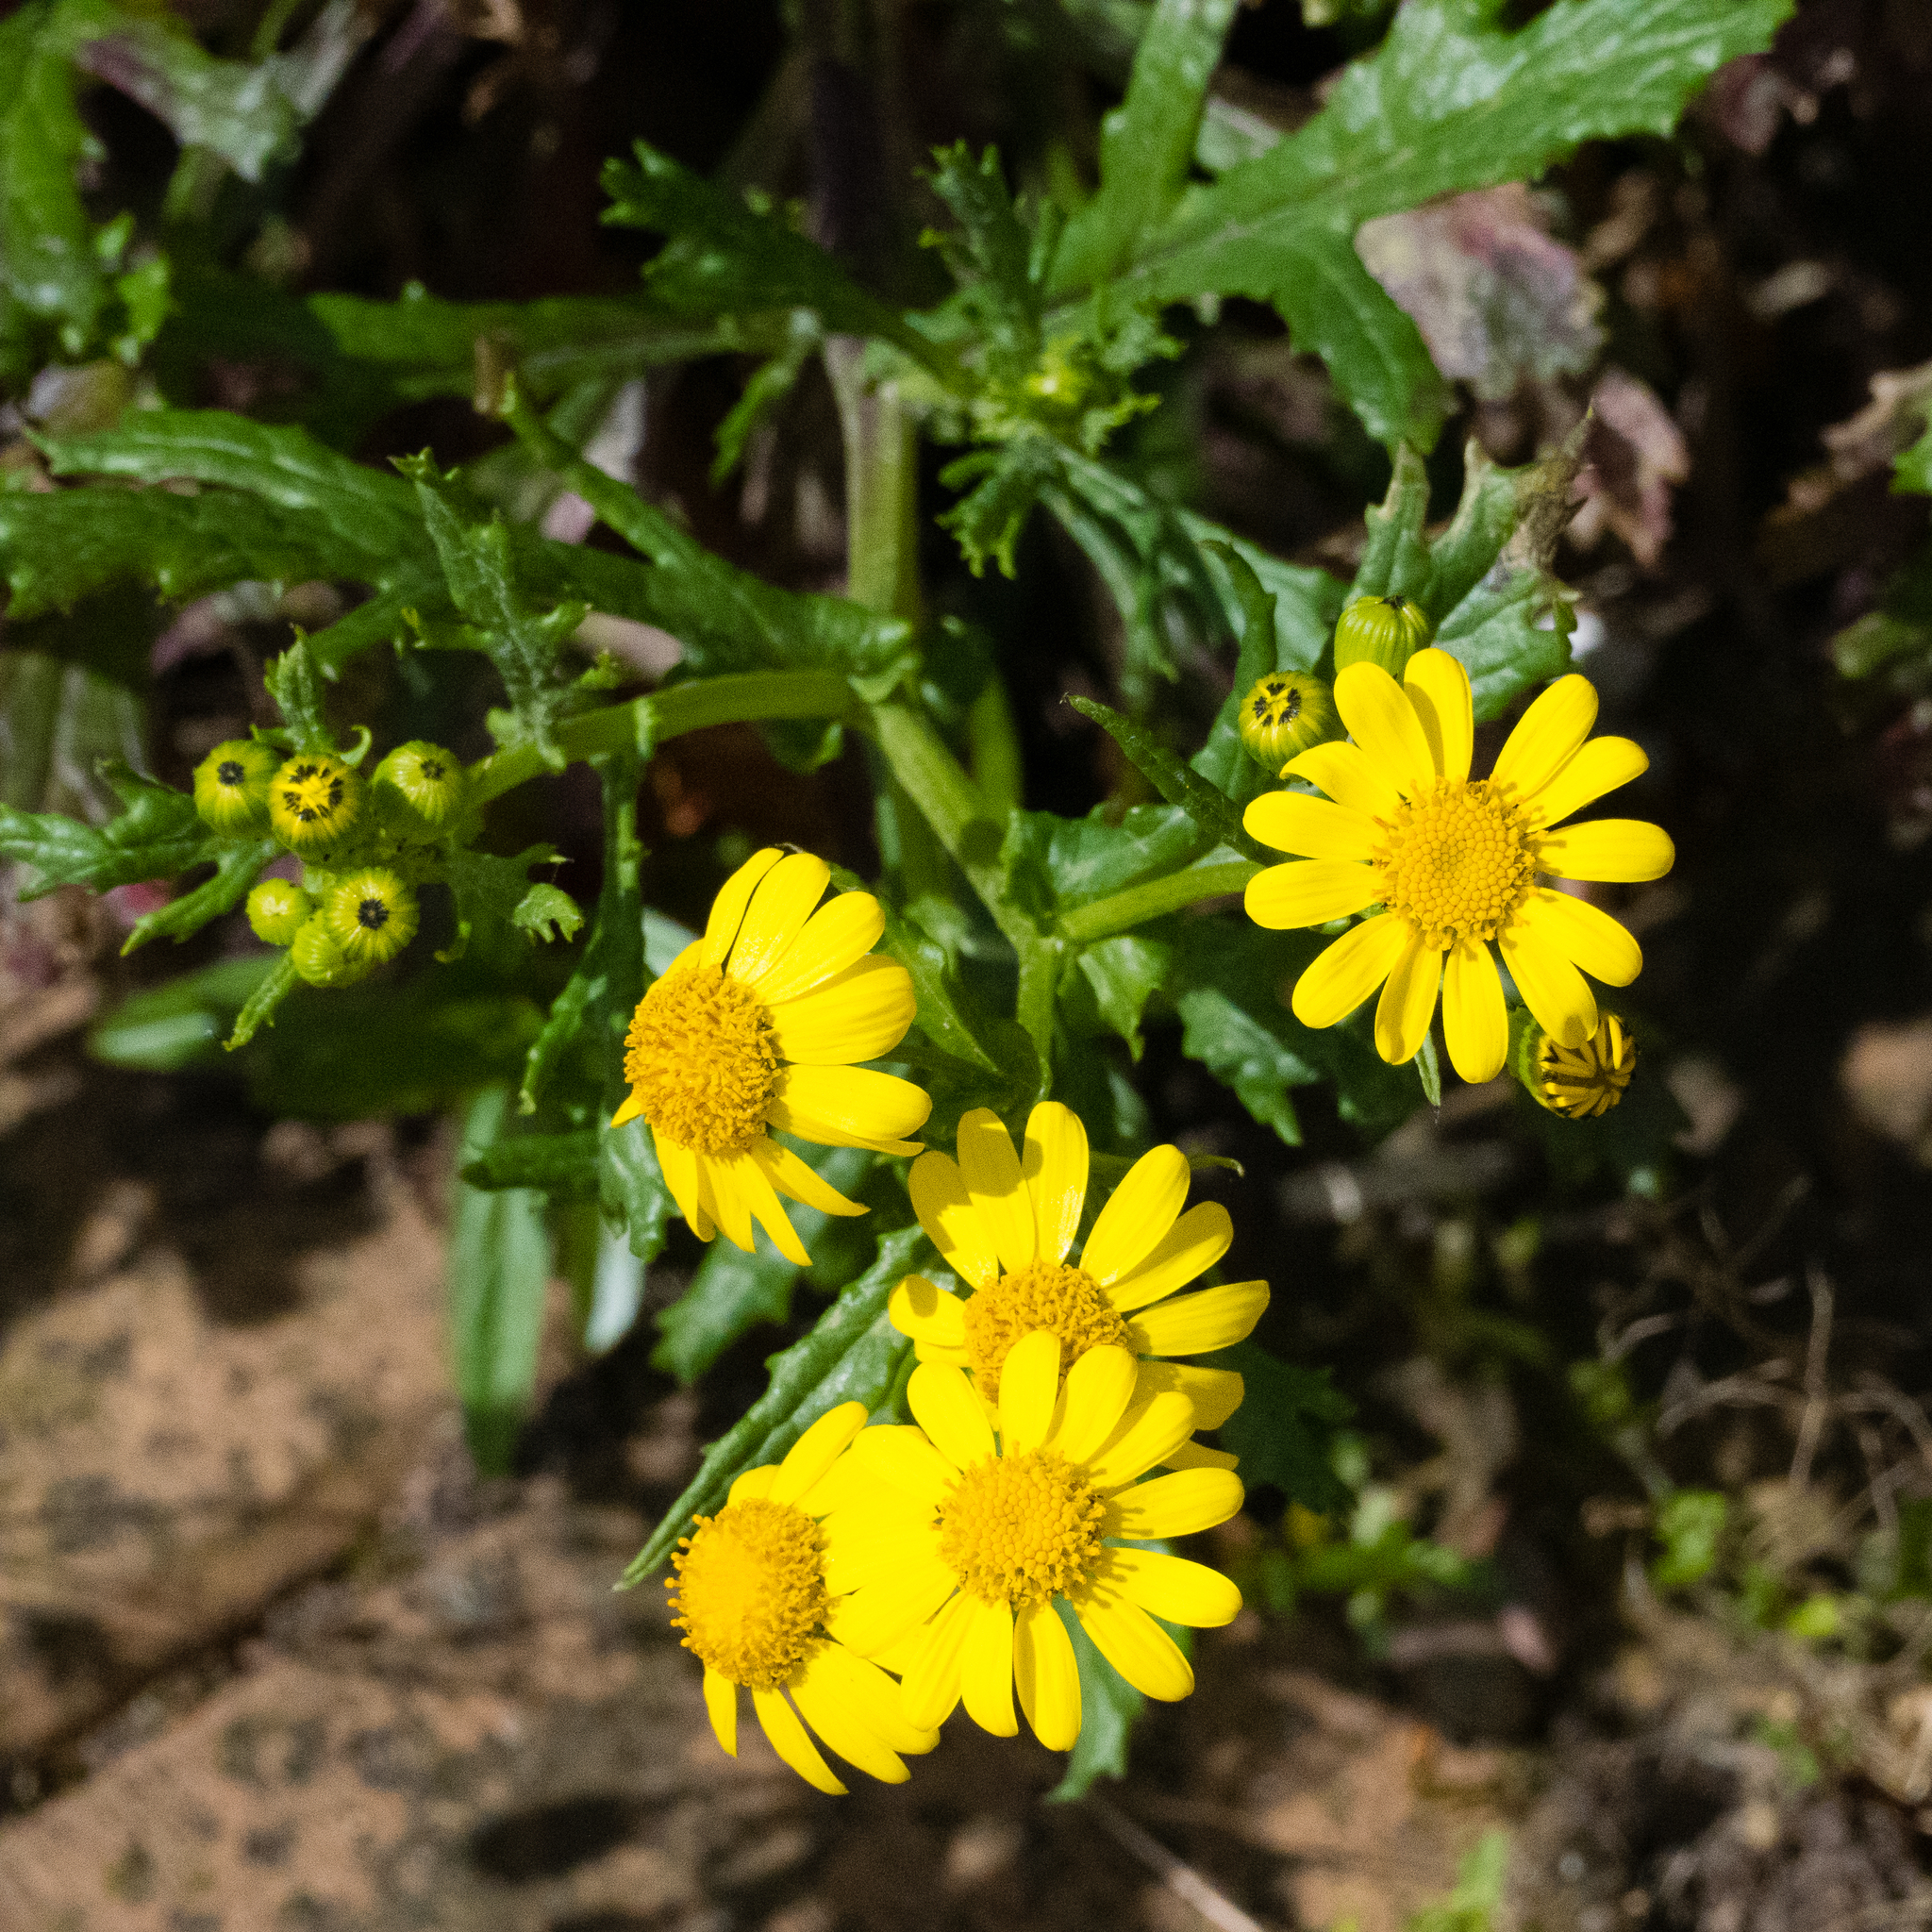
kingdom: Plantae
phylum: Tracheophyta
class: Magnoliopsida
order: Asterales
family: Asteraceae
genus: Senecio
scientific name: Senecio squalidus
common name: Oxford ragwort
